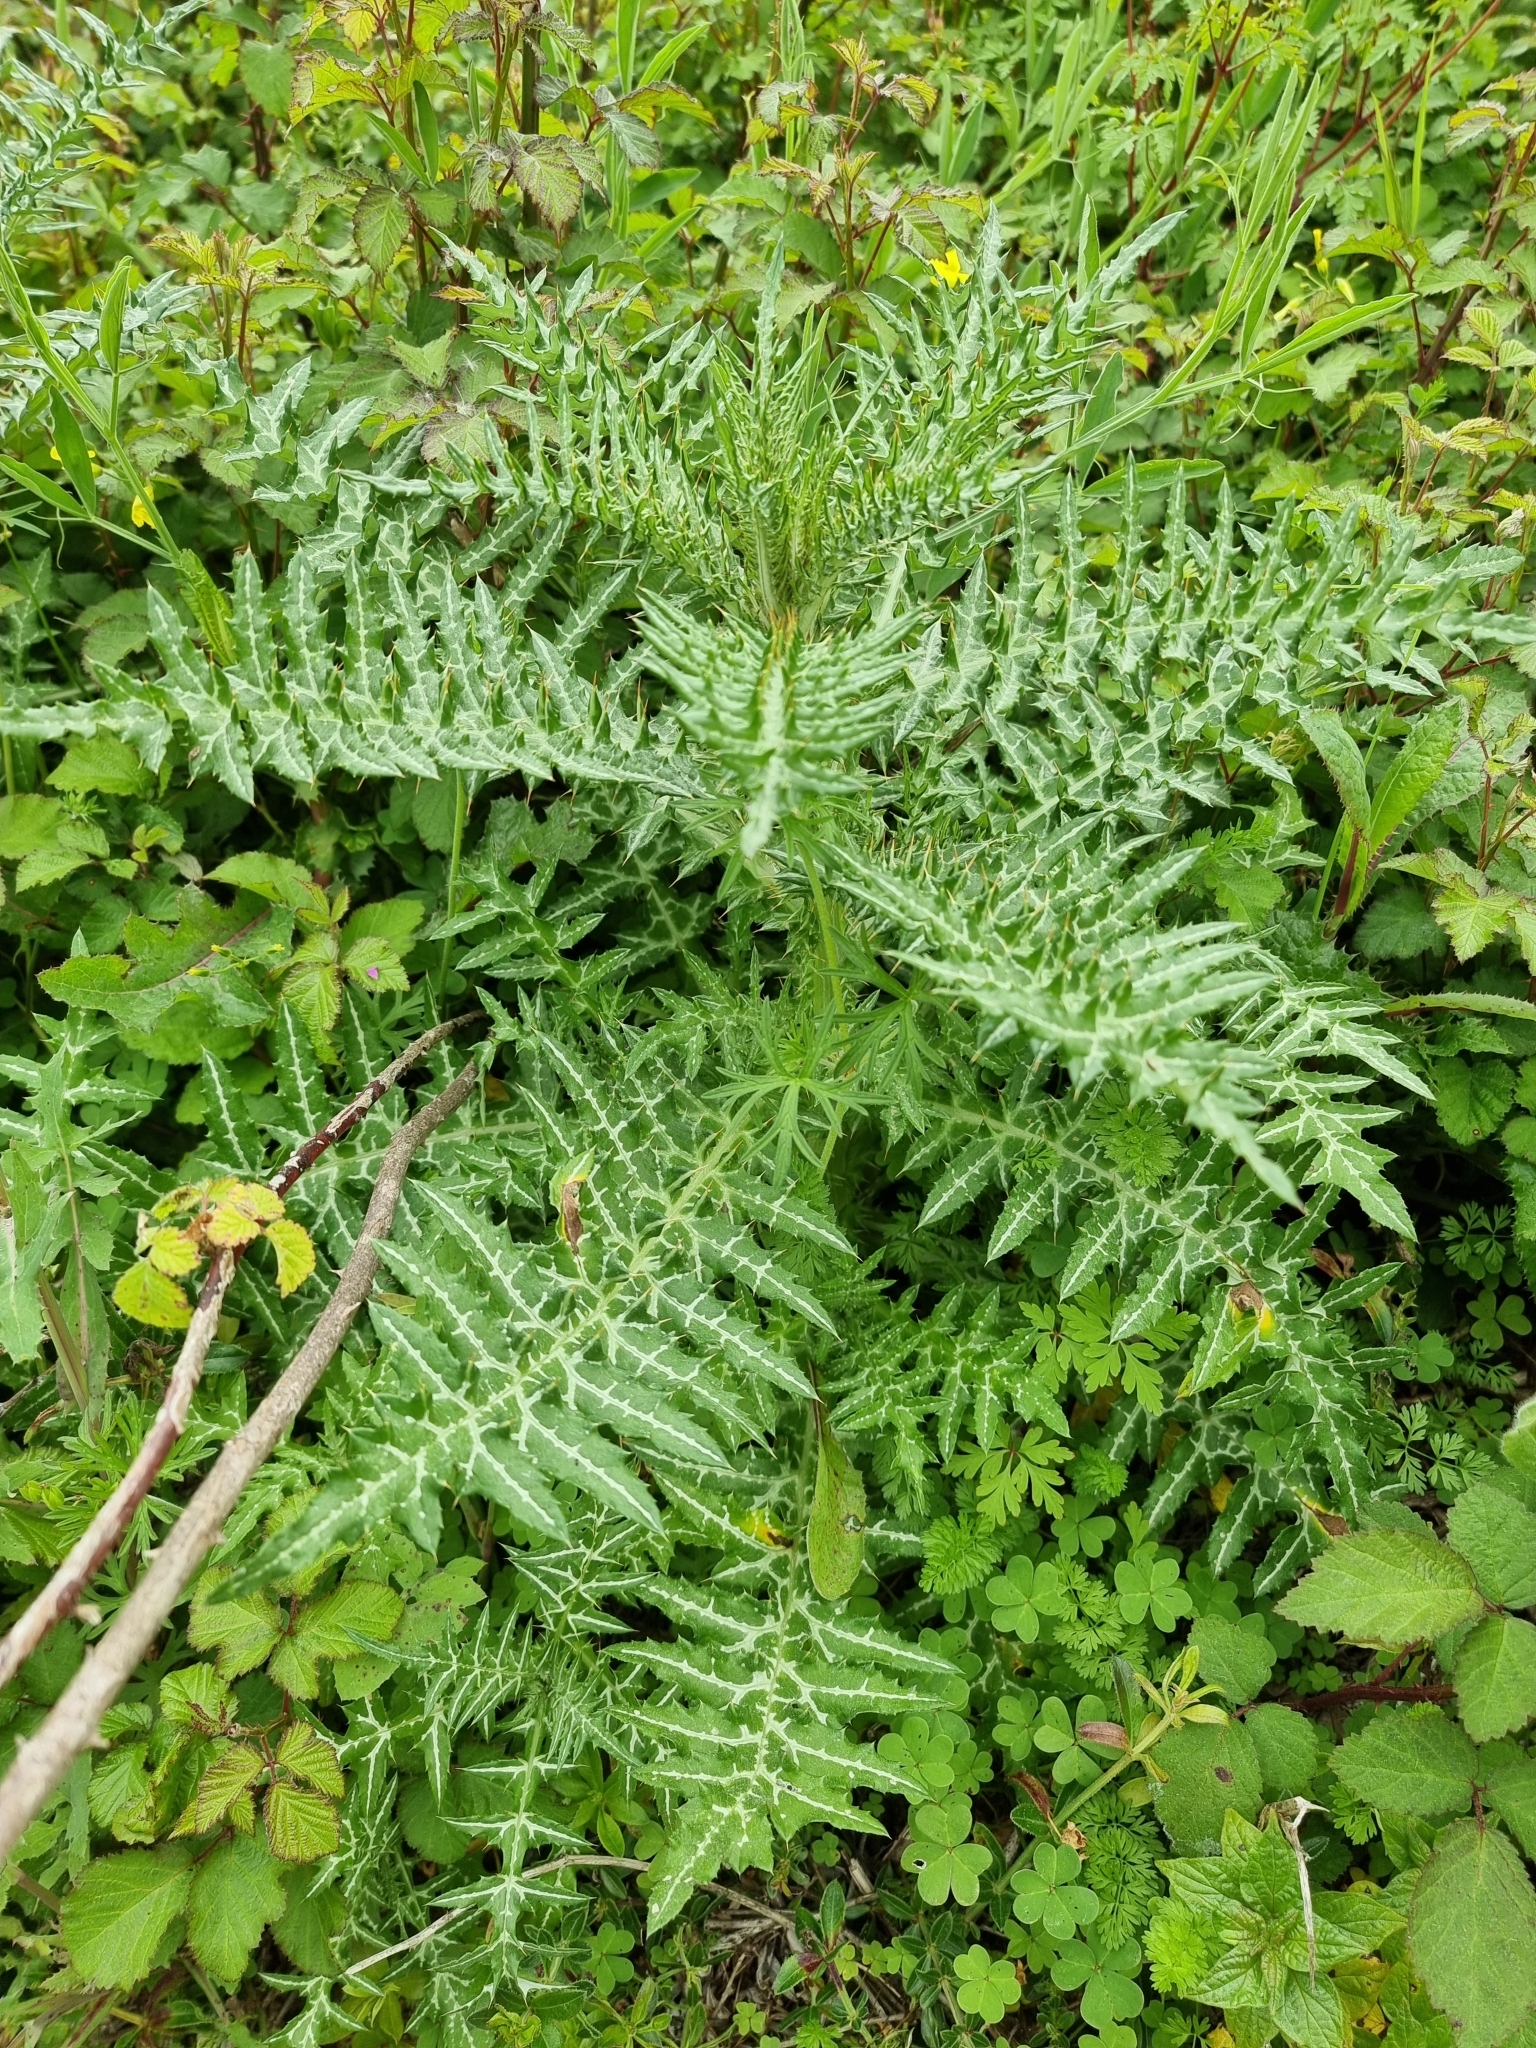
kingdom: Plantae
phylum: Tracheophyta
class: Magnoliopsida
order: Asterales
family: Asteraceae
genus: Galactites
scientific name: Galactites tomentosa
